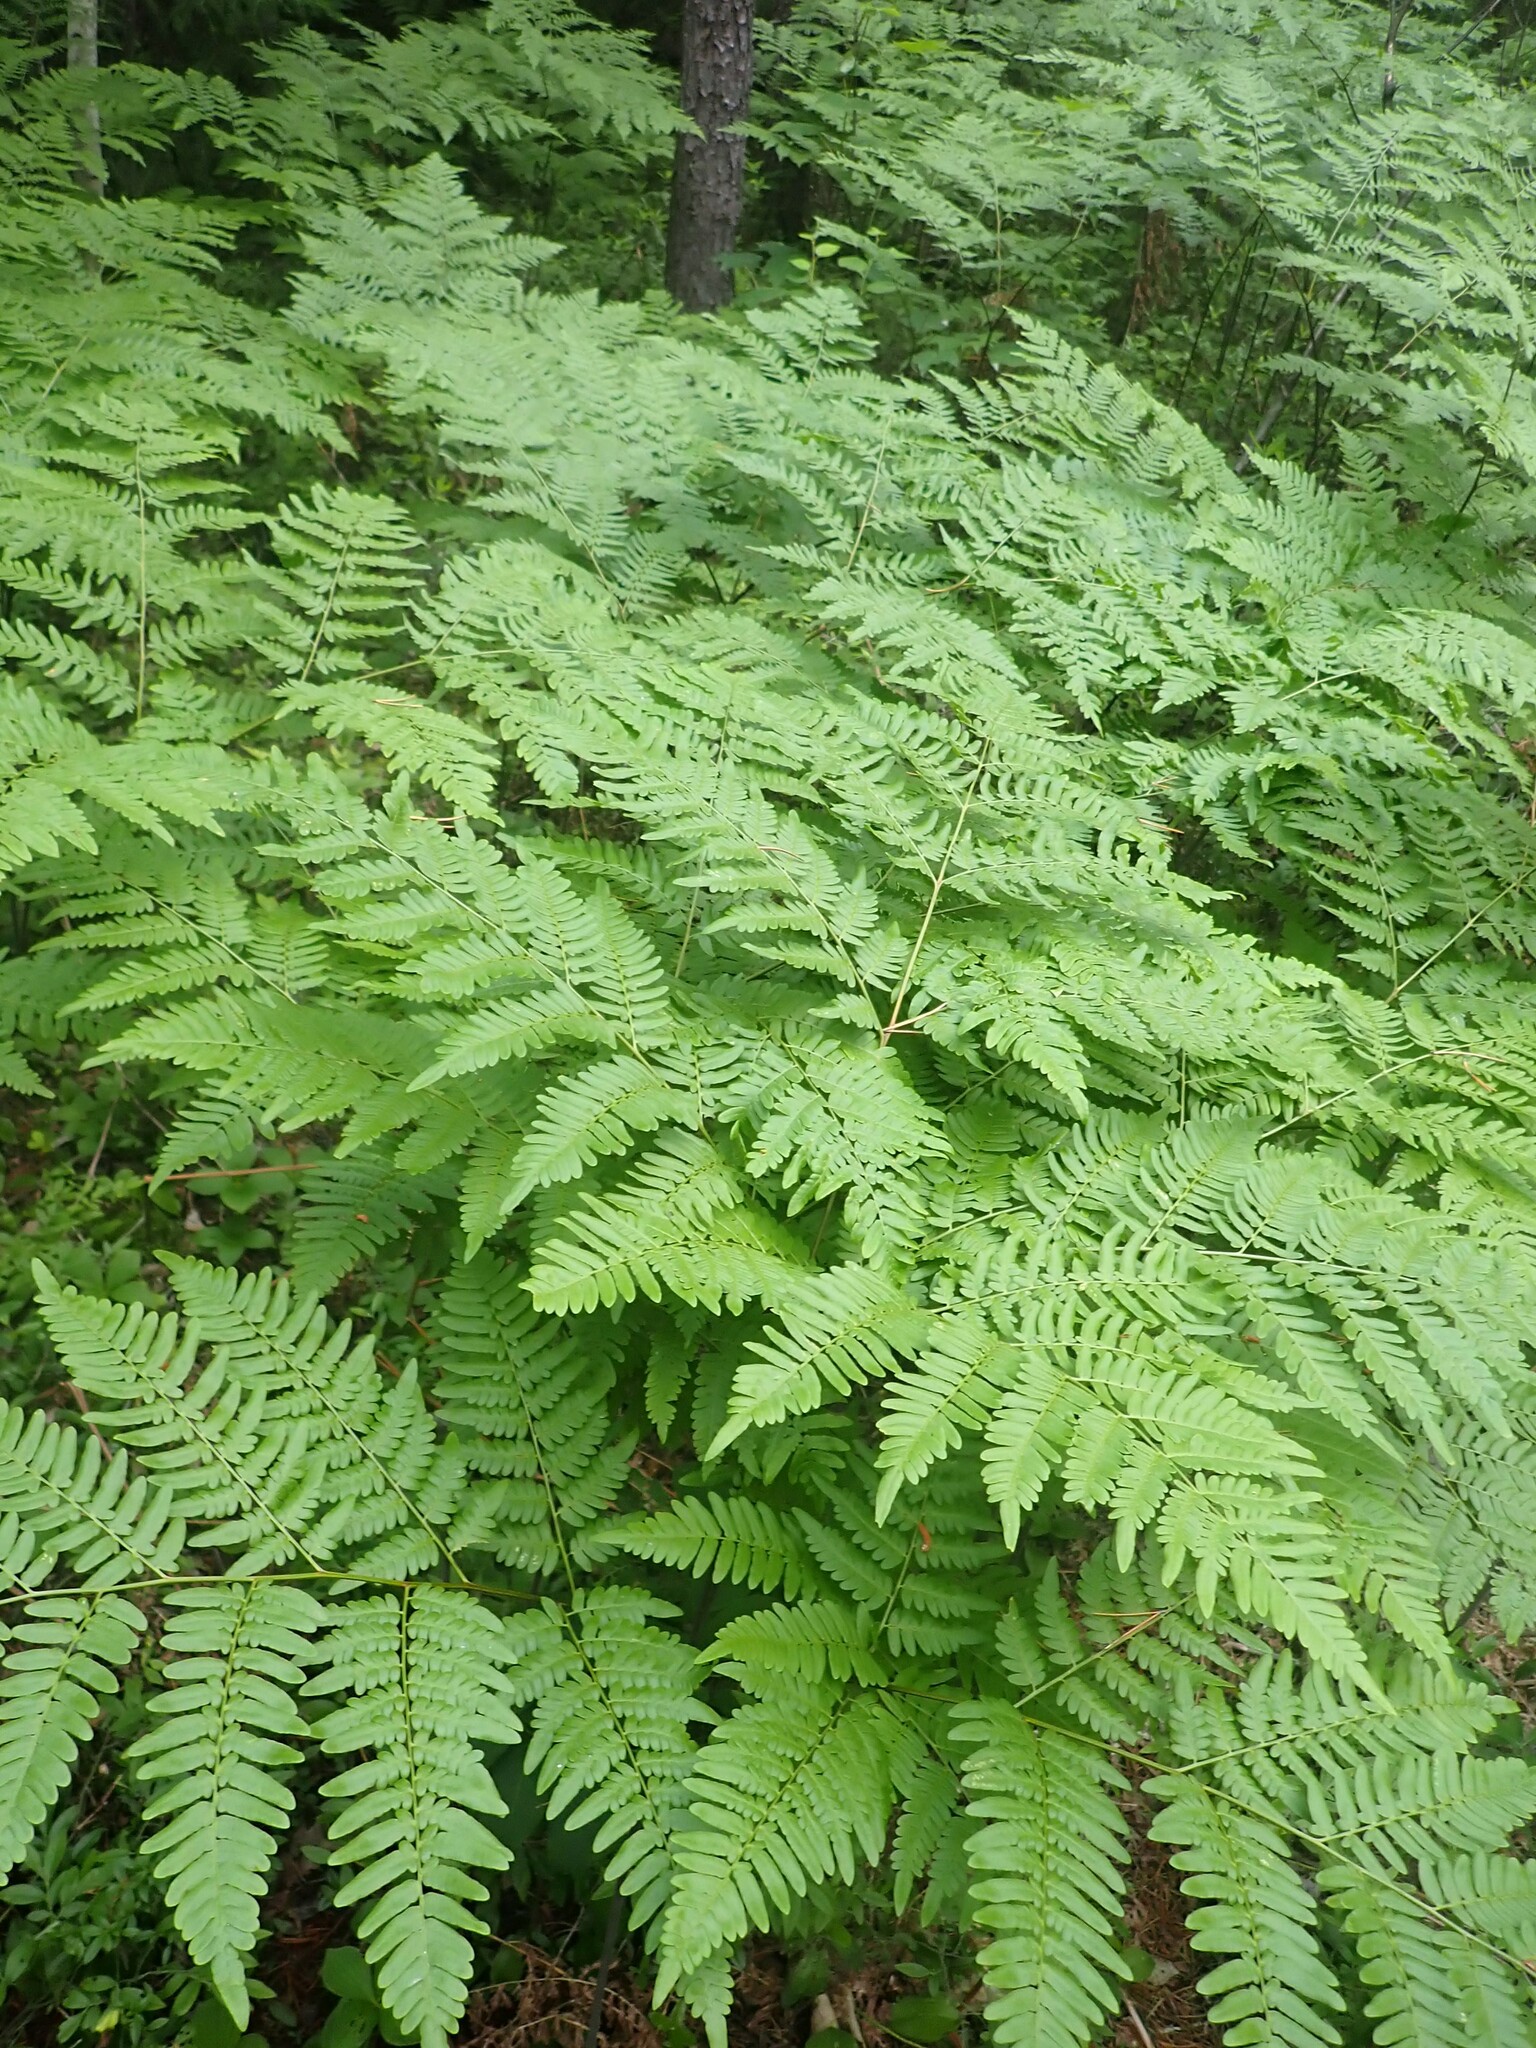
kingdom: Plantae
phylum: Tracheophyta
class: Polypodiopsida
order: Polypodiales
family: Dennstaedtiaceae
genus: Pteridium
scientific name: Pteridium aquilinum
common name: Bracken
